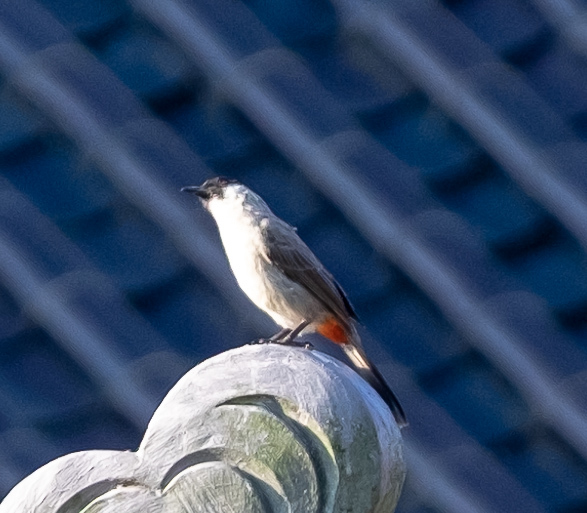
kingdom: Animalia
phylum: Chordata
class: Aves
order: Passeriformes
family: Pycnonotidae
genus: Pycnonotus
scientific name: Pycnonotus aurigaster
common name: Sooty-headed bulbul
